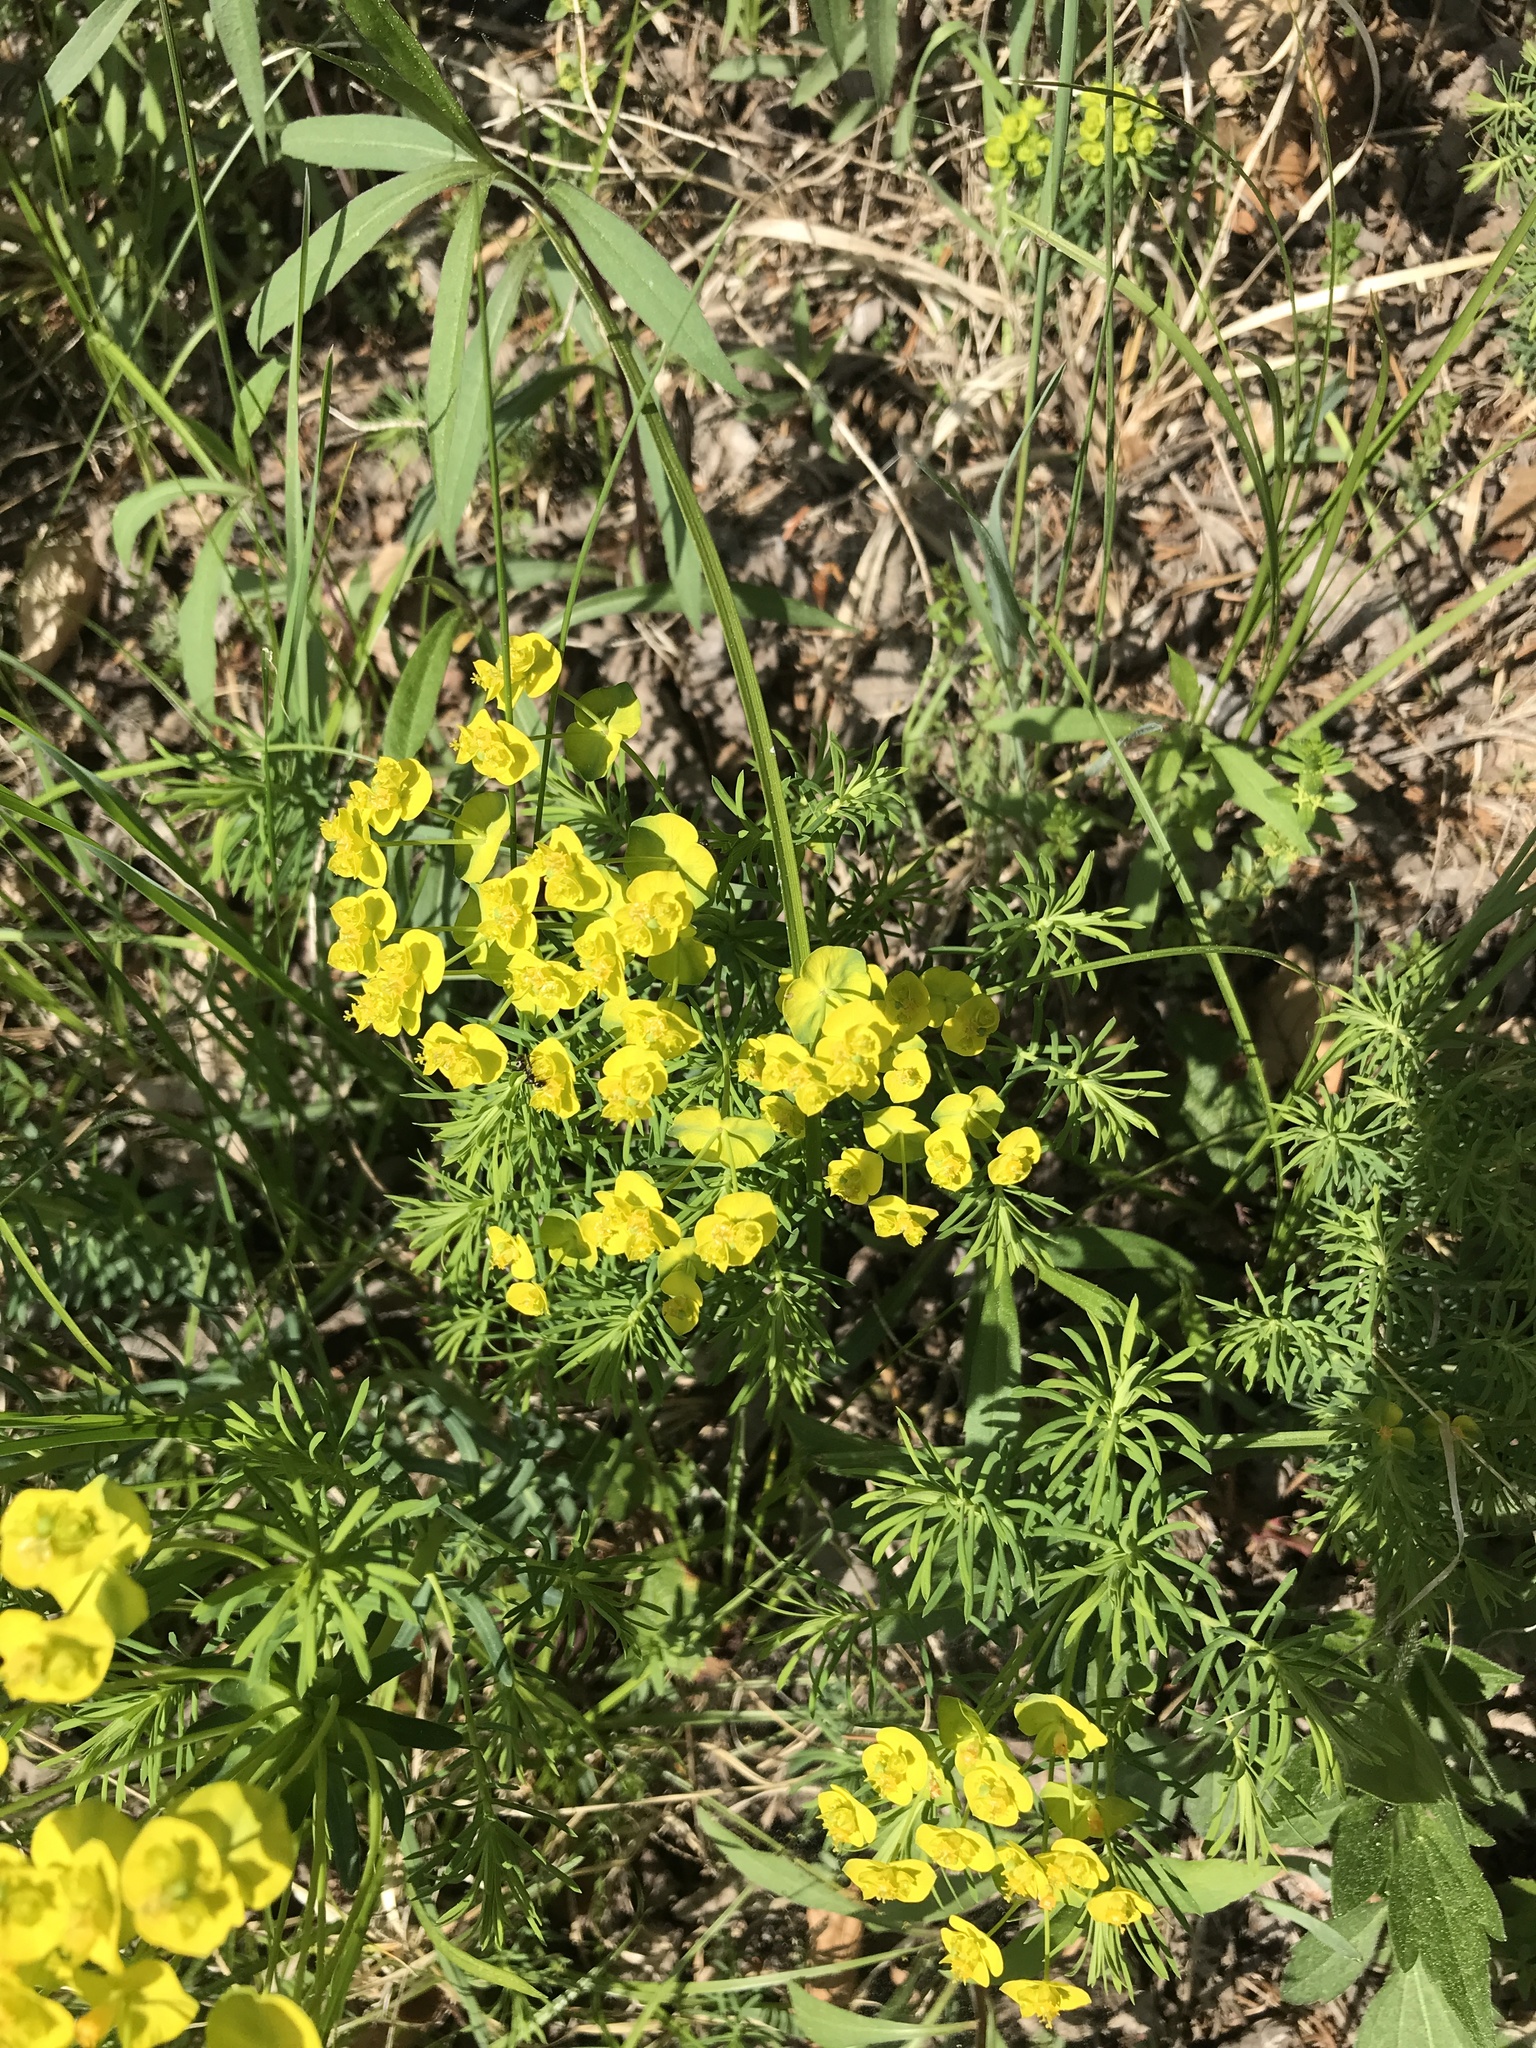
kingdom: Plantae
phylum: Tracheophyta
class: Magnoliopsida
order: Malpighiales
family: Euphorbiaceae
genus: Euphorbia
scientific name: Euphorbia cyparissias
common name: Cypress spurge
